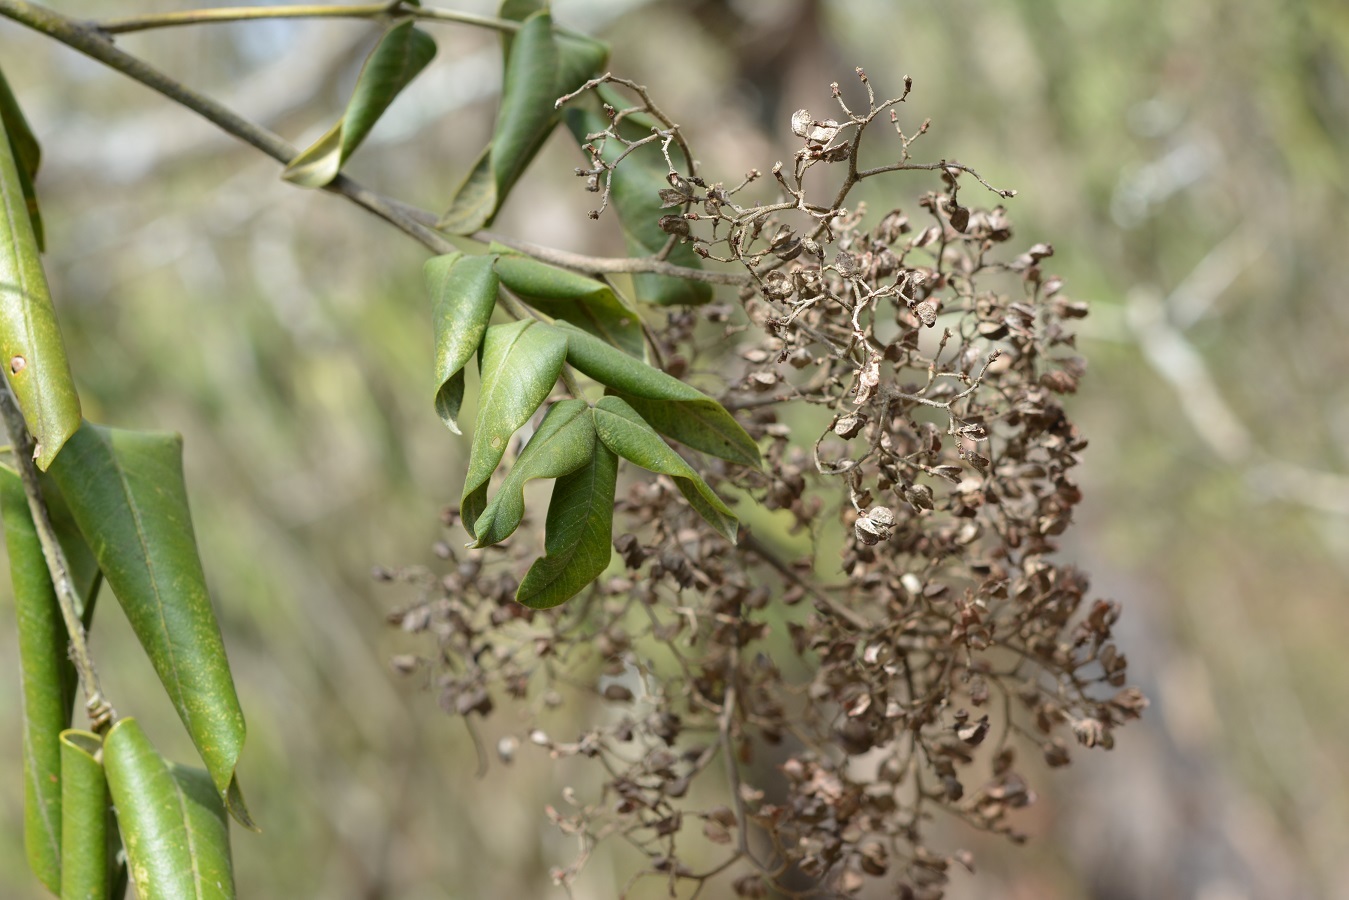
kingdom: Plantae
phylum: Tracheophyta
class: Magnoliopsida
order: Sapindales
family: Anacardiaceae
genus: Rhus
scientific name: Rhus vestita
